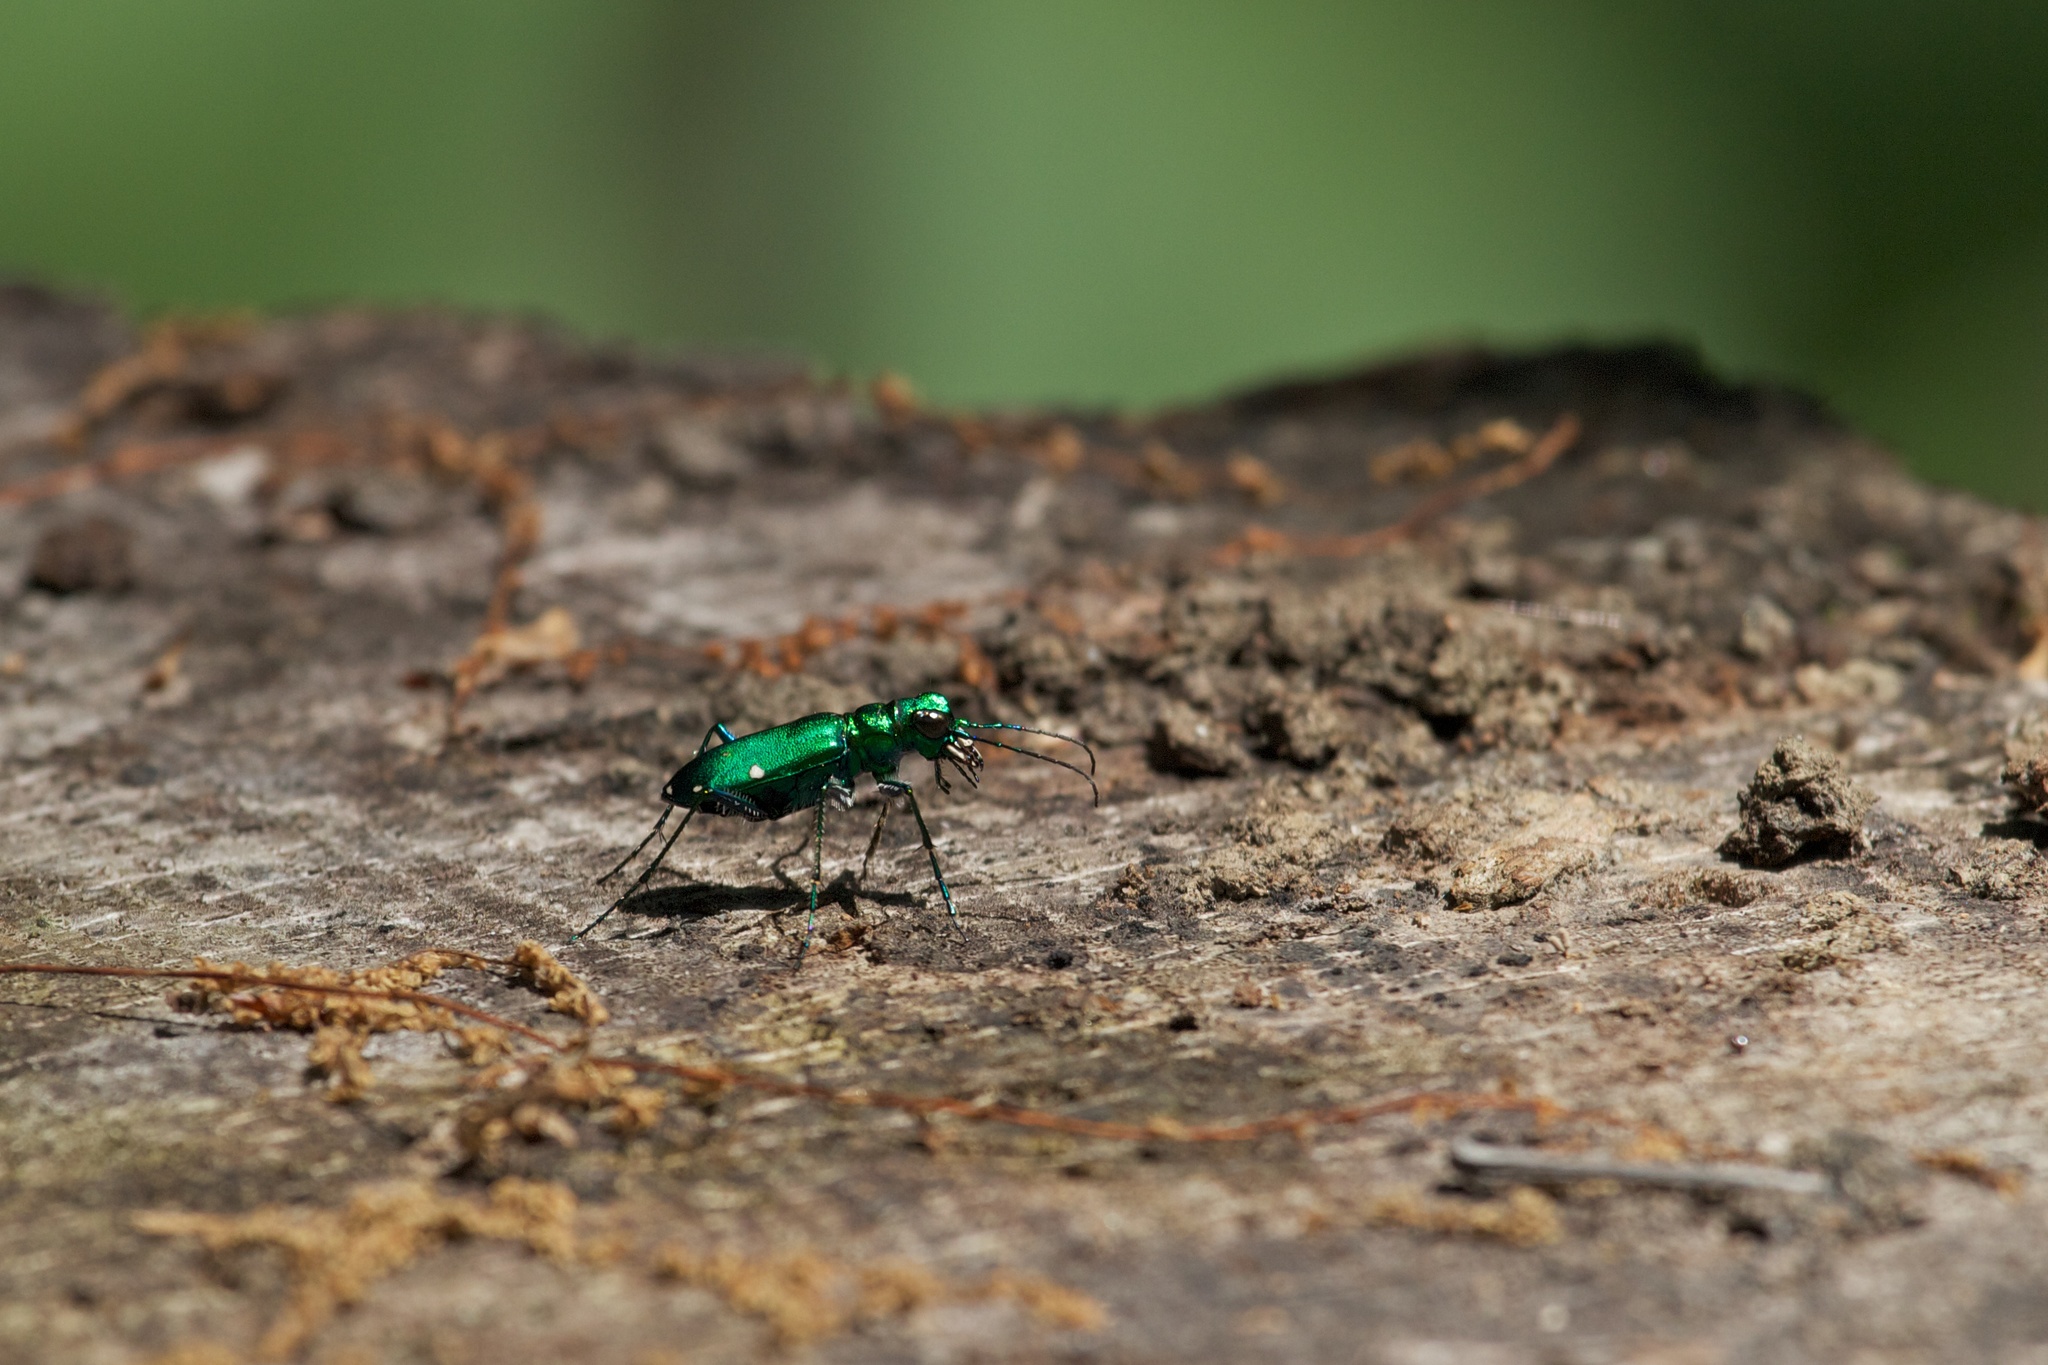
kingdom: Animalia
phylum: Arthropoda
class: Insecta
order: Coleoptera
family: Carabidae
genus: Cicindela
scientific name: Cicindela sexguttata
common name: Six-spotted tiger beetle
